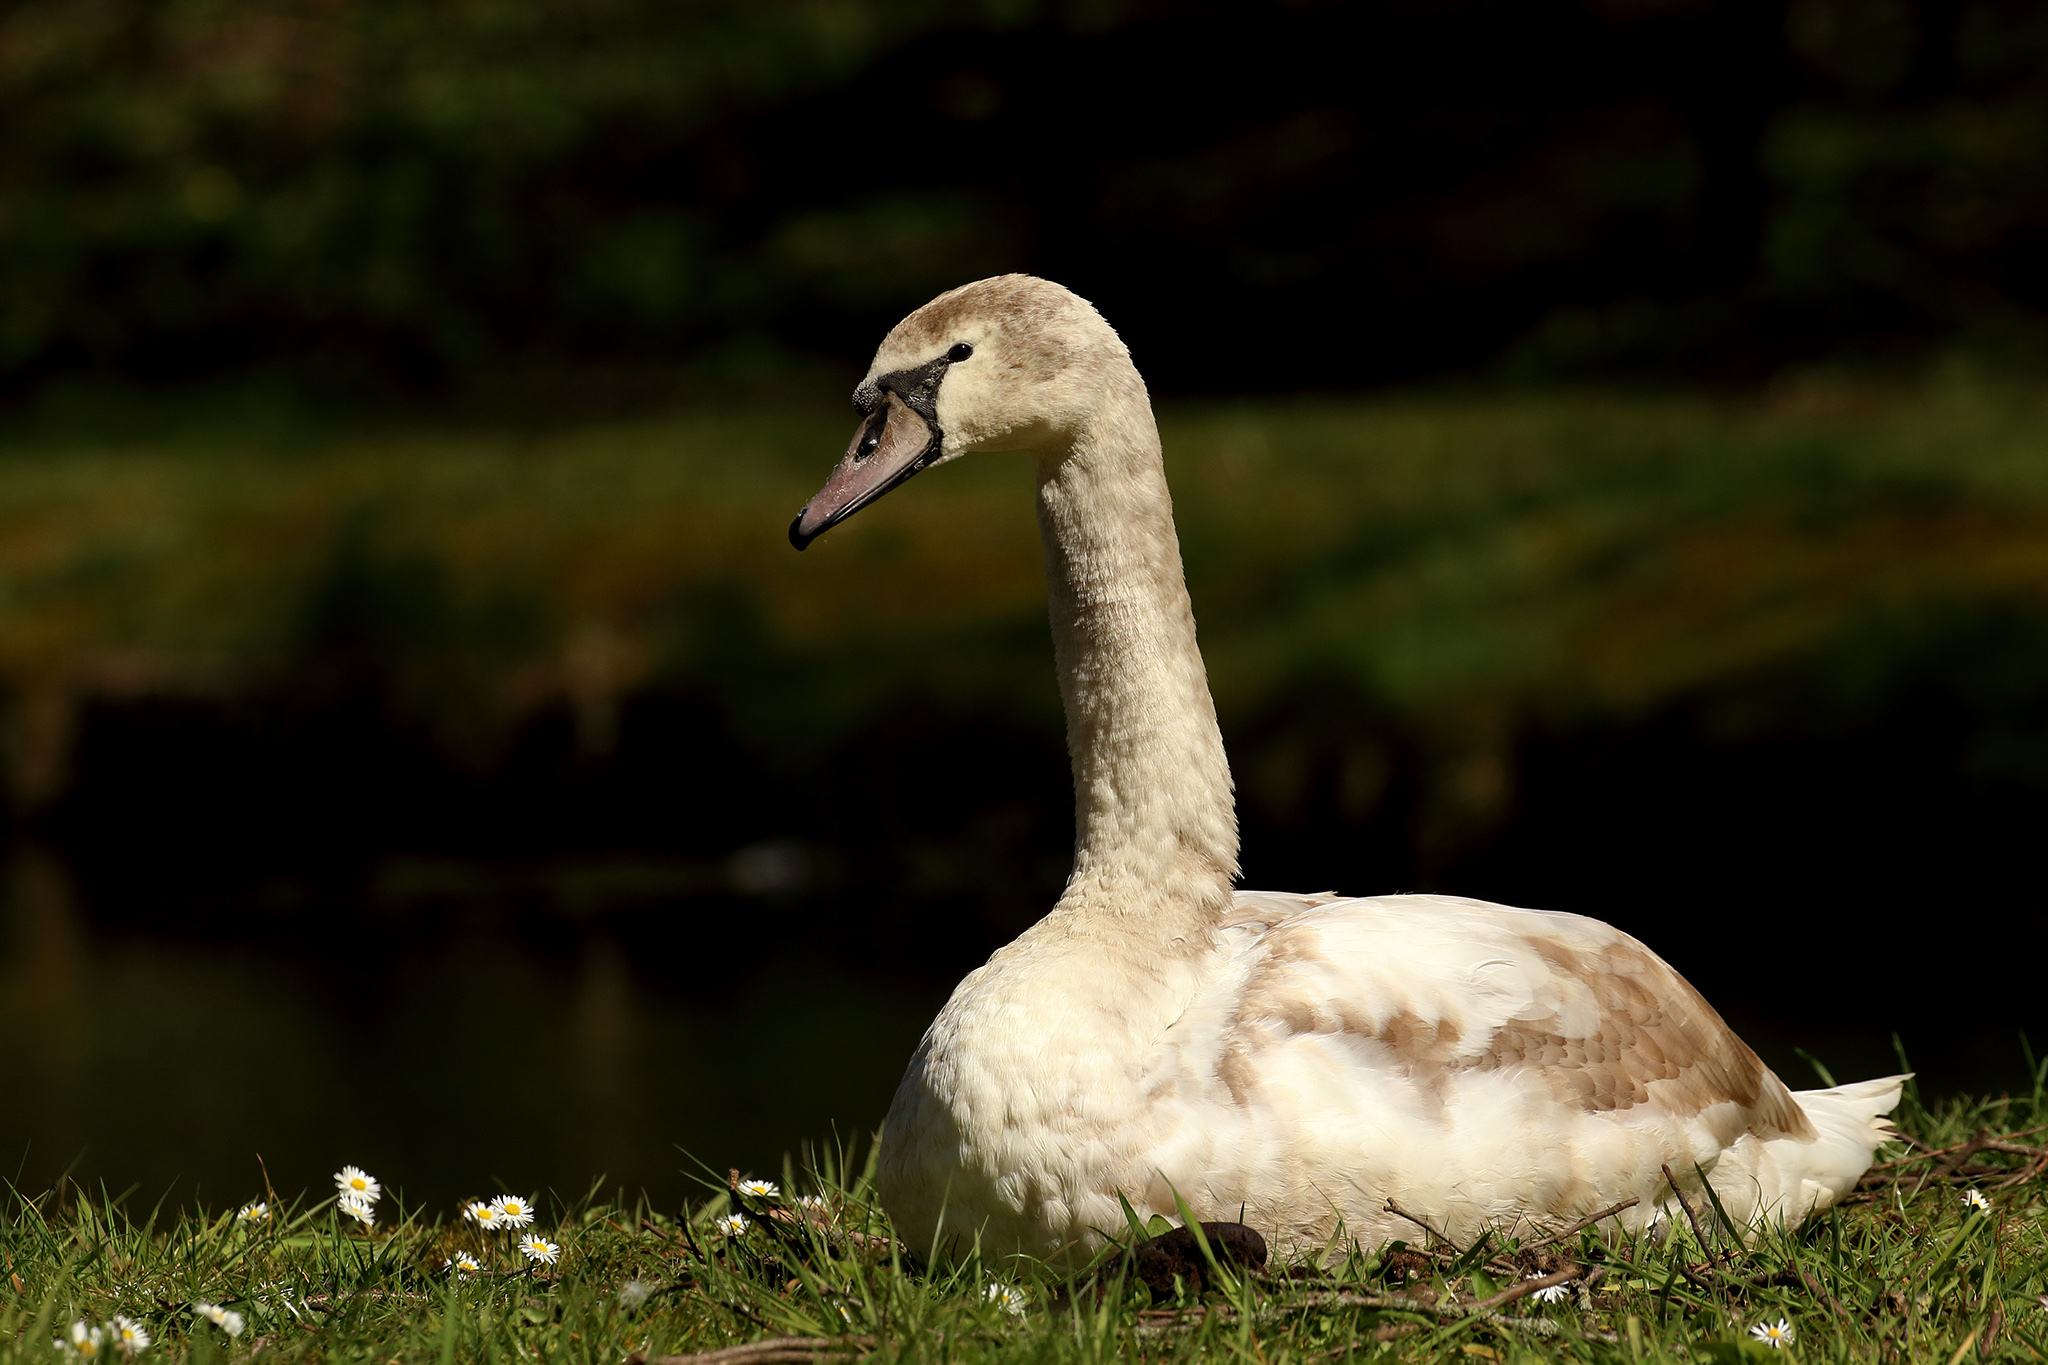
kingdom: Animalia
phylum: Chordata
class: Aves
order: Anseriformes
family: Anatidae
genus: Cygnus
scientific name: Cygnus olor
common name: Mute swan
